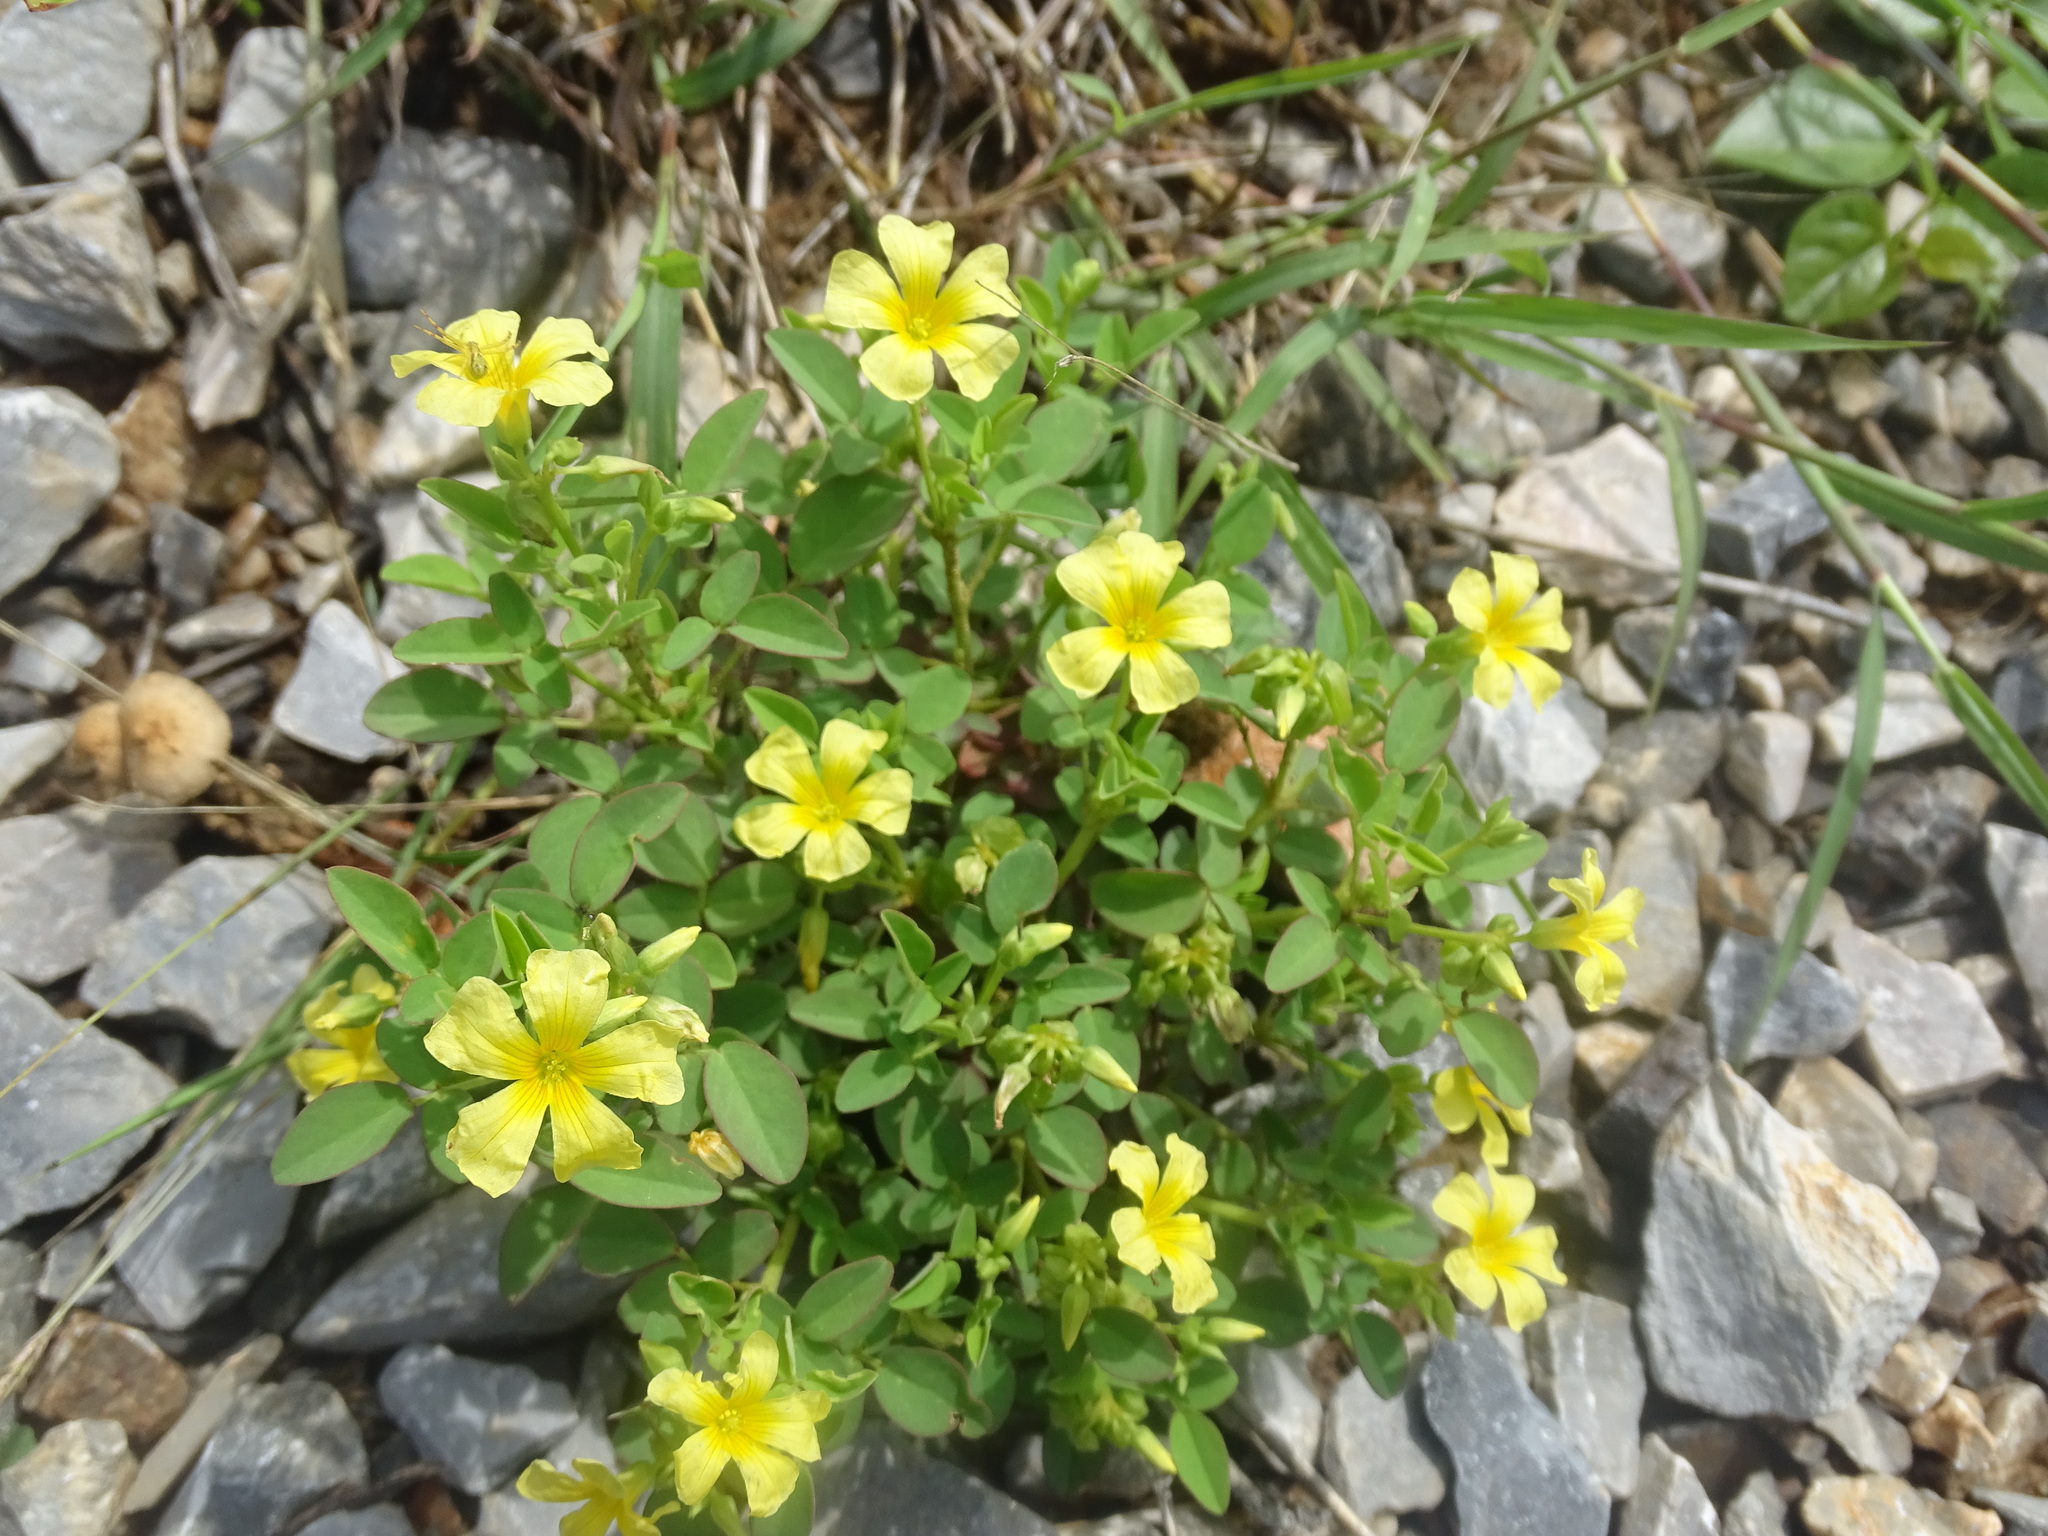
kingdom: Plantae
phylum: Tracheophyta
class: Magnoliopsida
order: Oxalidales
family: Oxalidaceae
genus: Oxalis
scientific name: Oxalis frutescens
